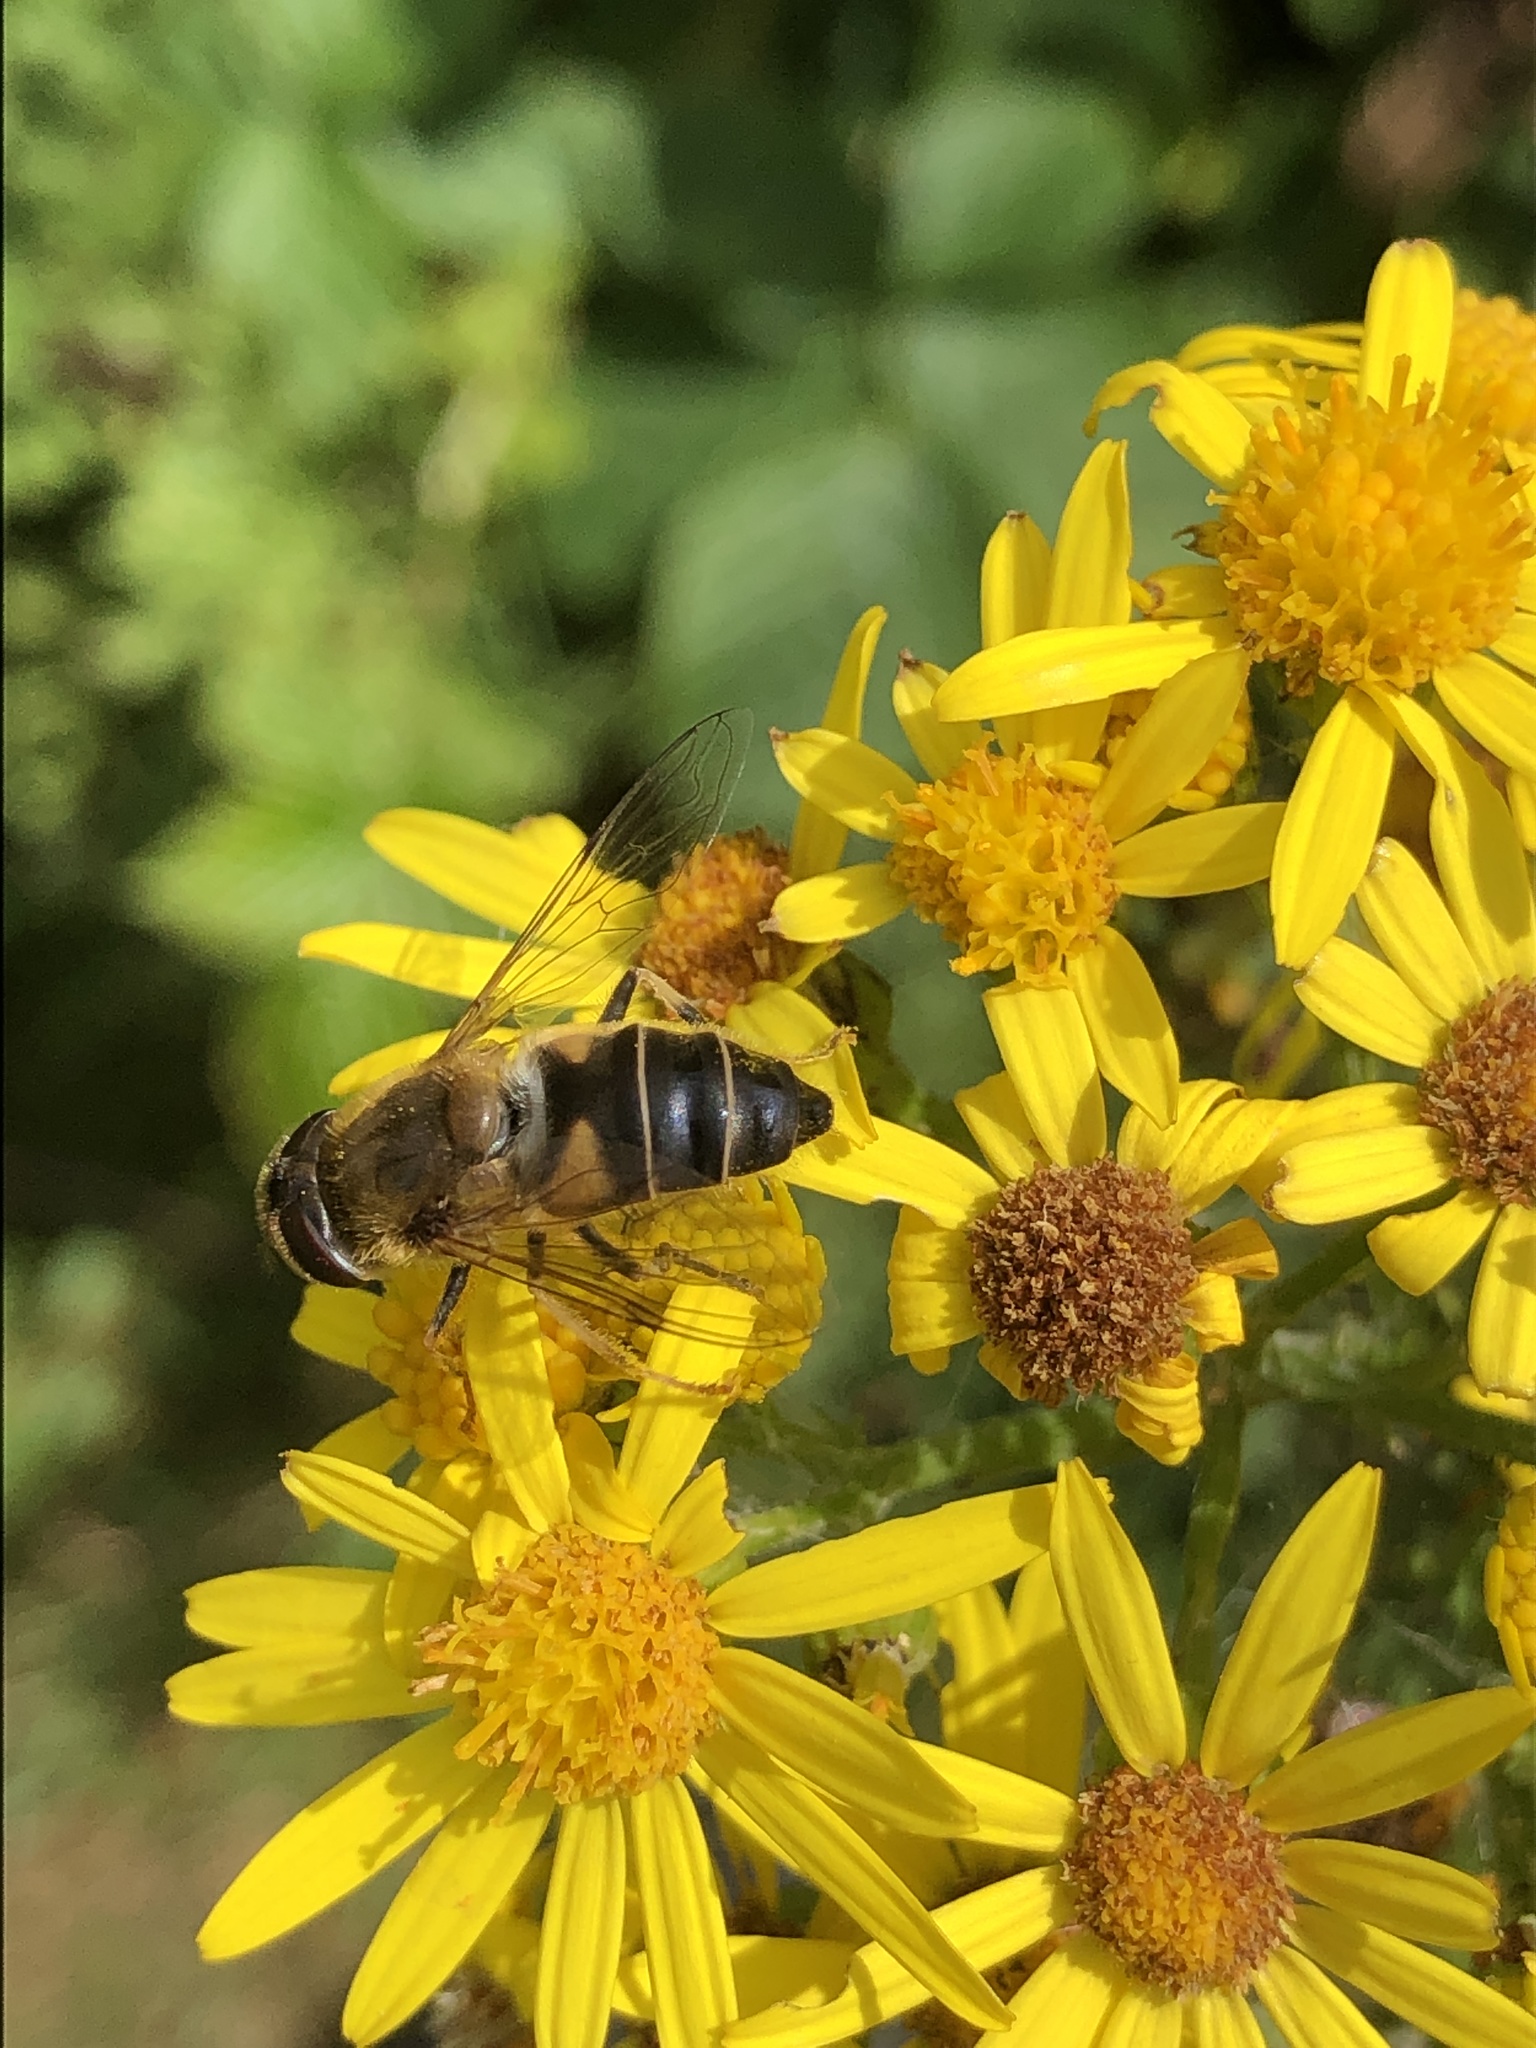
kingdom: Animalia
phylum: Arthropoda
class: Insecta
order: Diptera
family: Syrphidae
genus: Eristalis
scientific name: Eristalis pertinax
